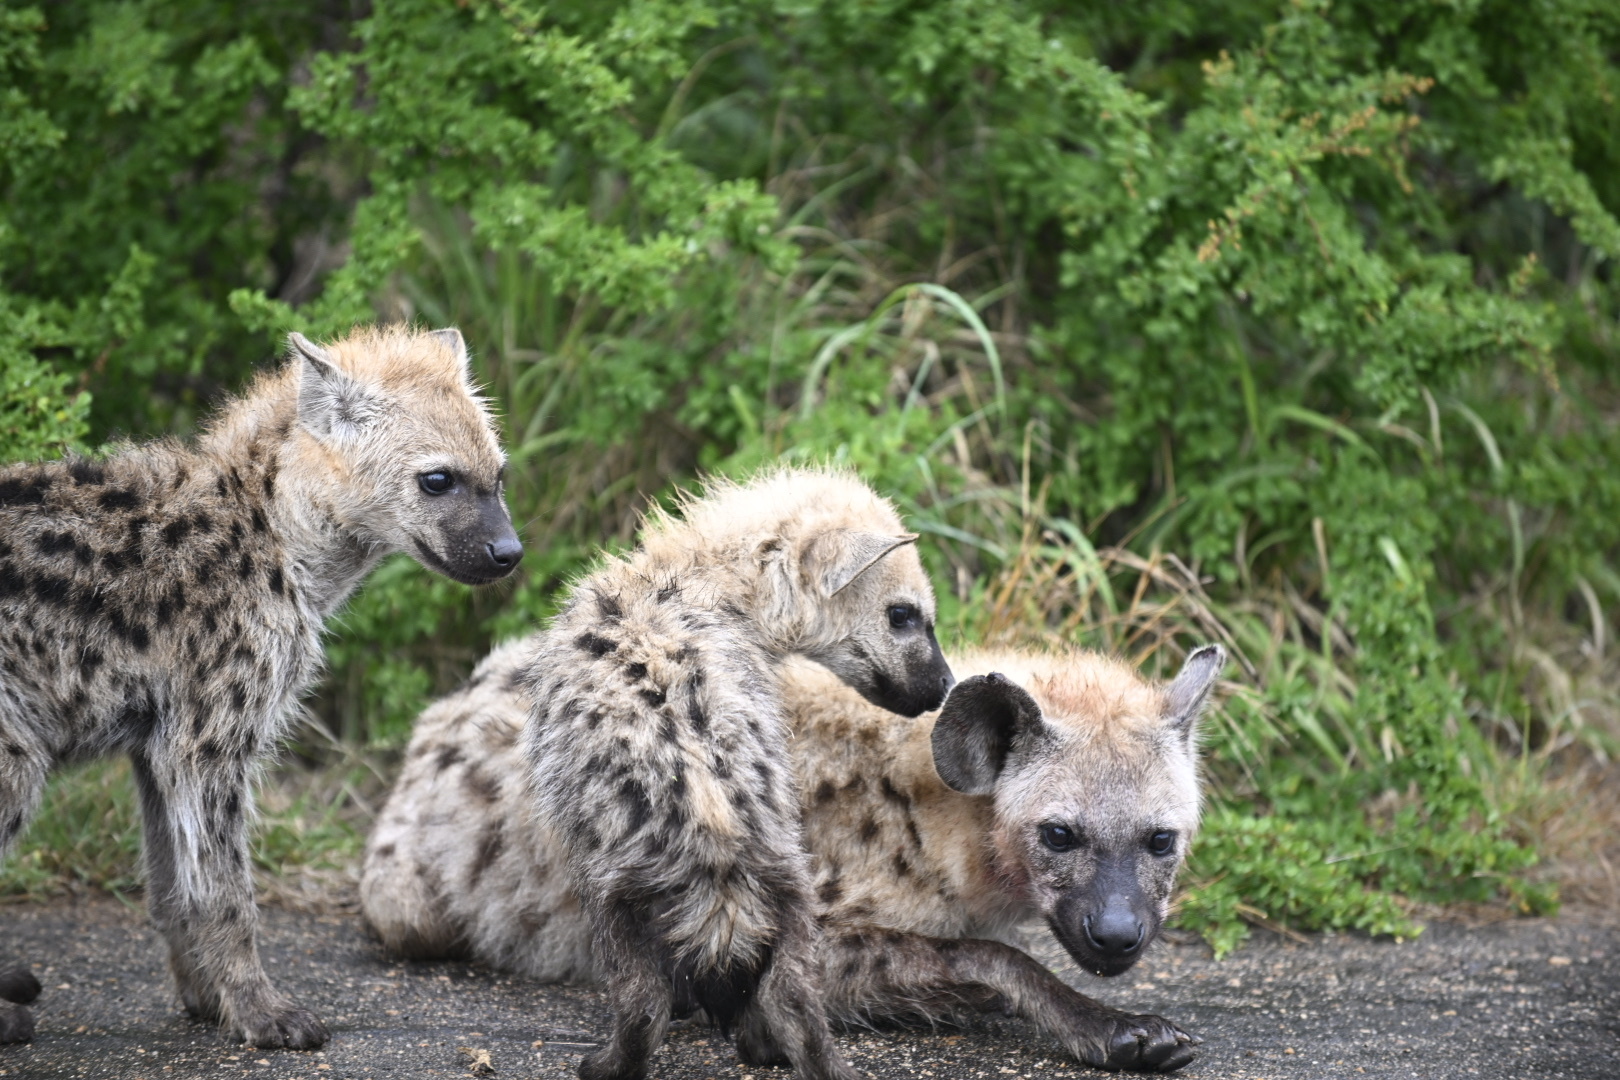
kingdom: Animalia
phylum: Chordata
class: Mammalia
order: Carnivora
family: Hyaenidae
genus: Crocuta
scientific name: Crocuta crocuta
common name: Spotted hyaena
